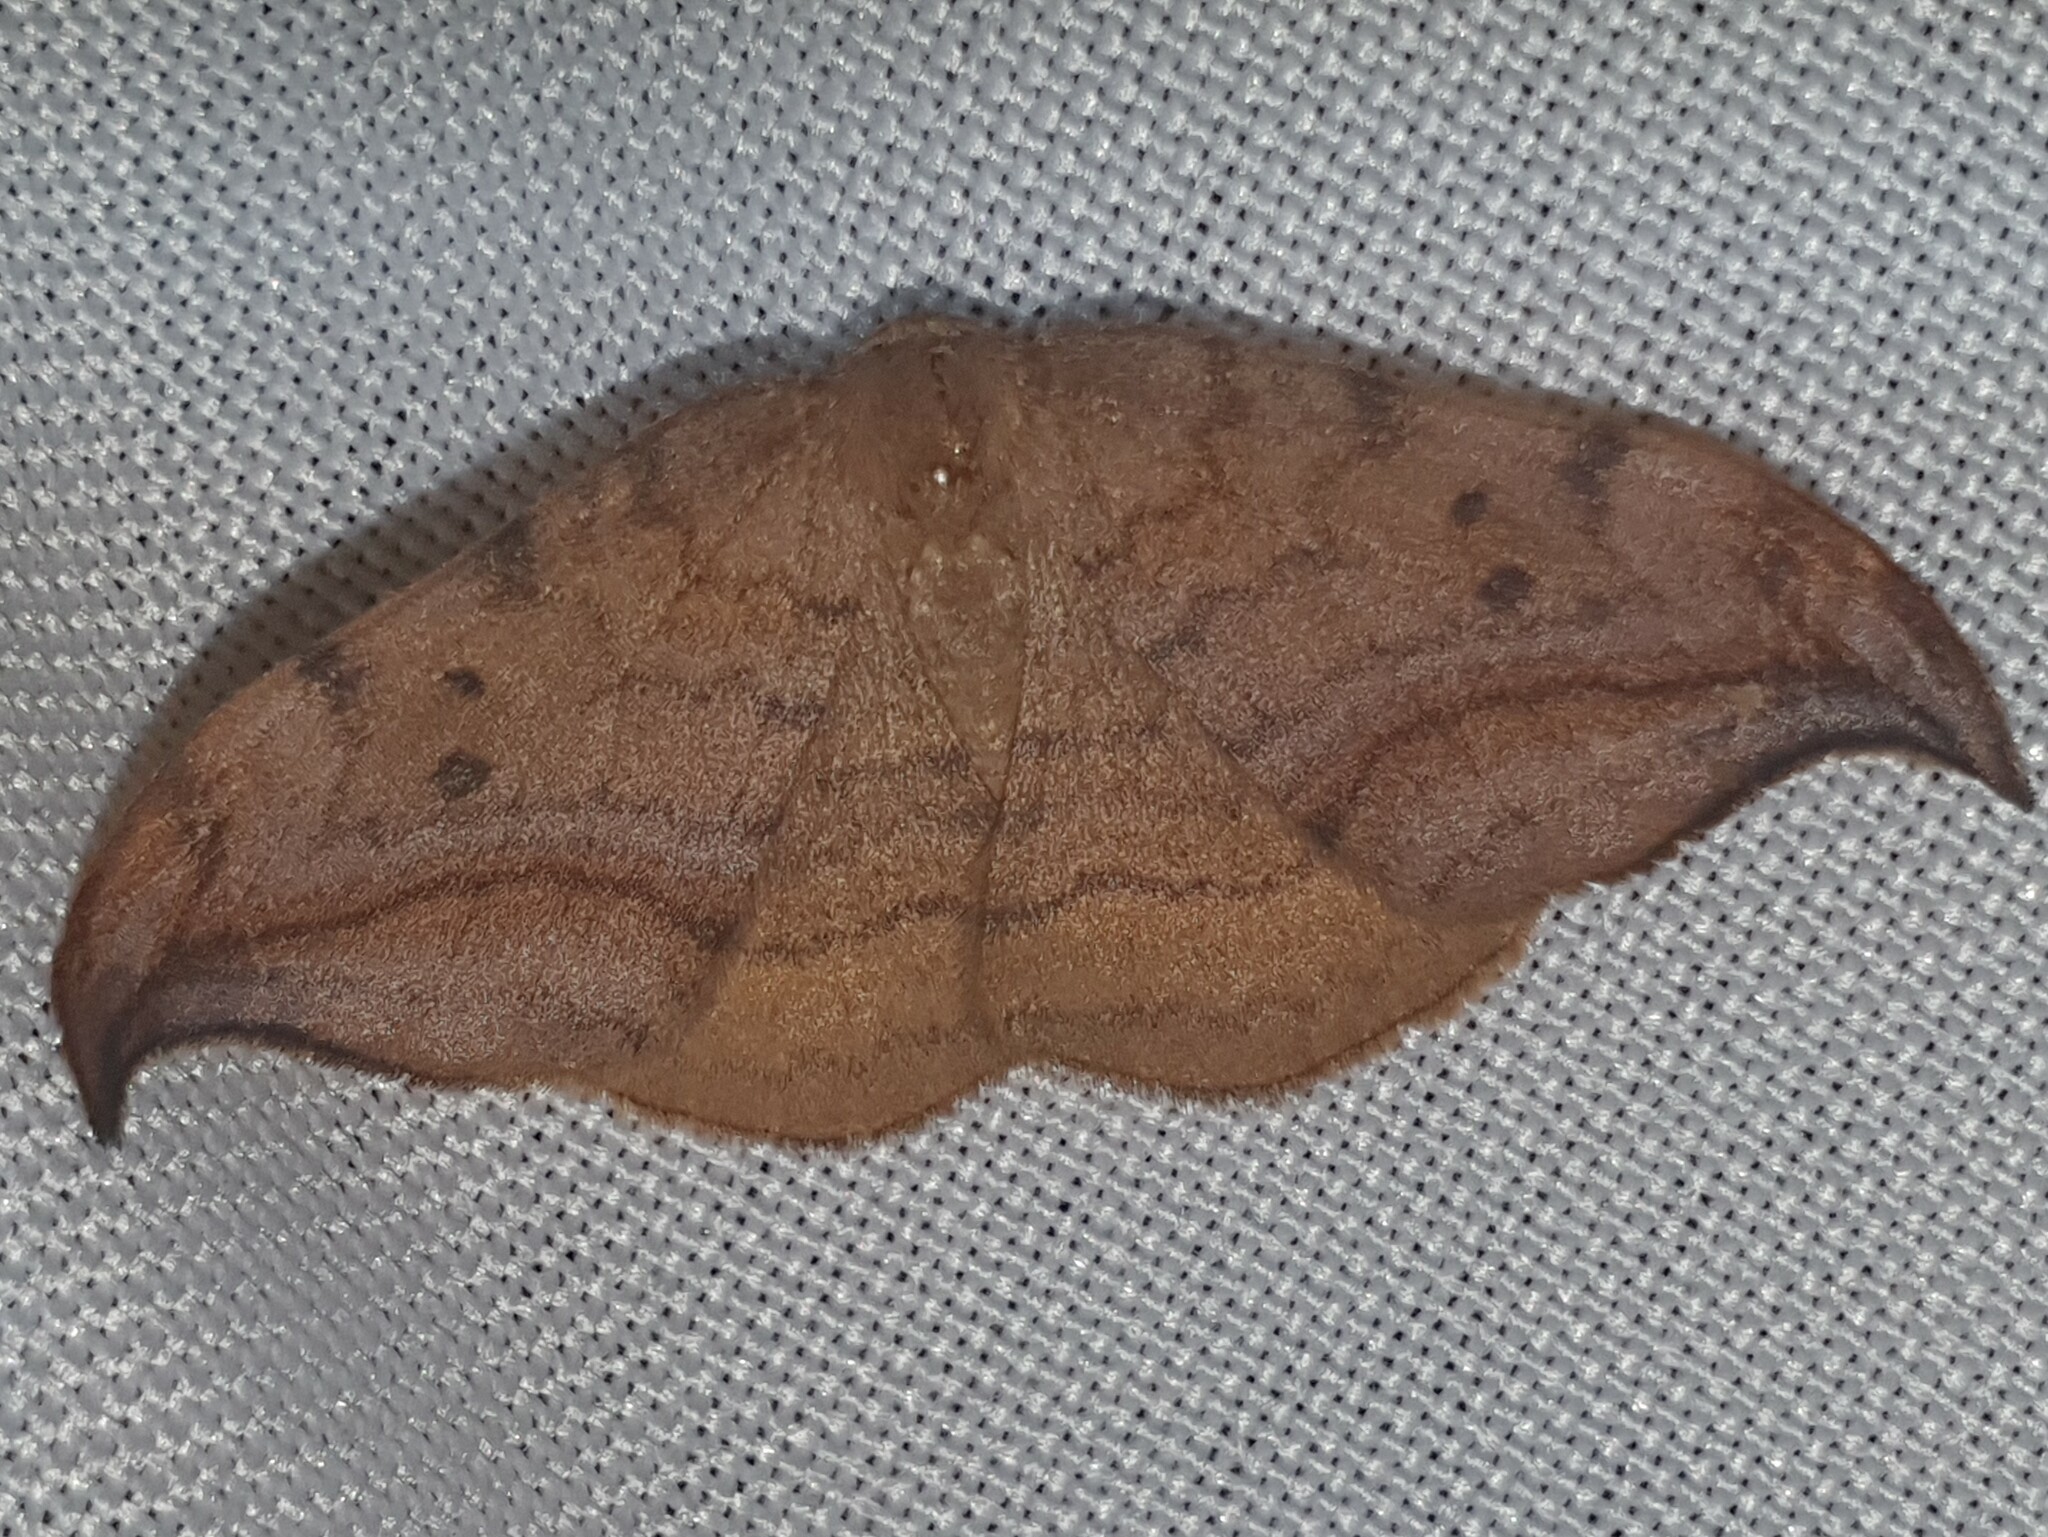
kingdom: Animalia
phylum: Arthropoda
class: Insecta
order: Lepidoptera
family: Drepanidae
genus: Drepana
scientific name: Drepana curvatula
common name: Dusky hook-tip
